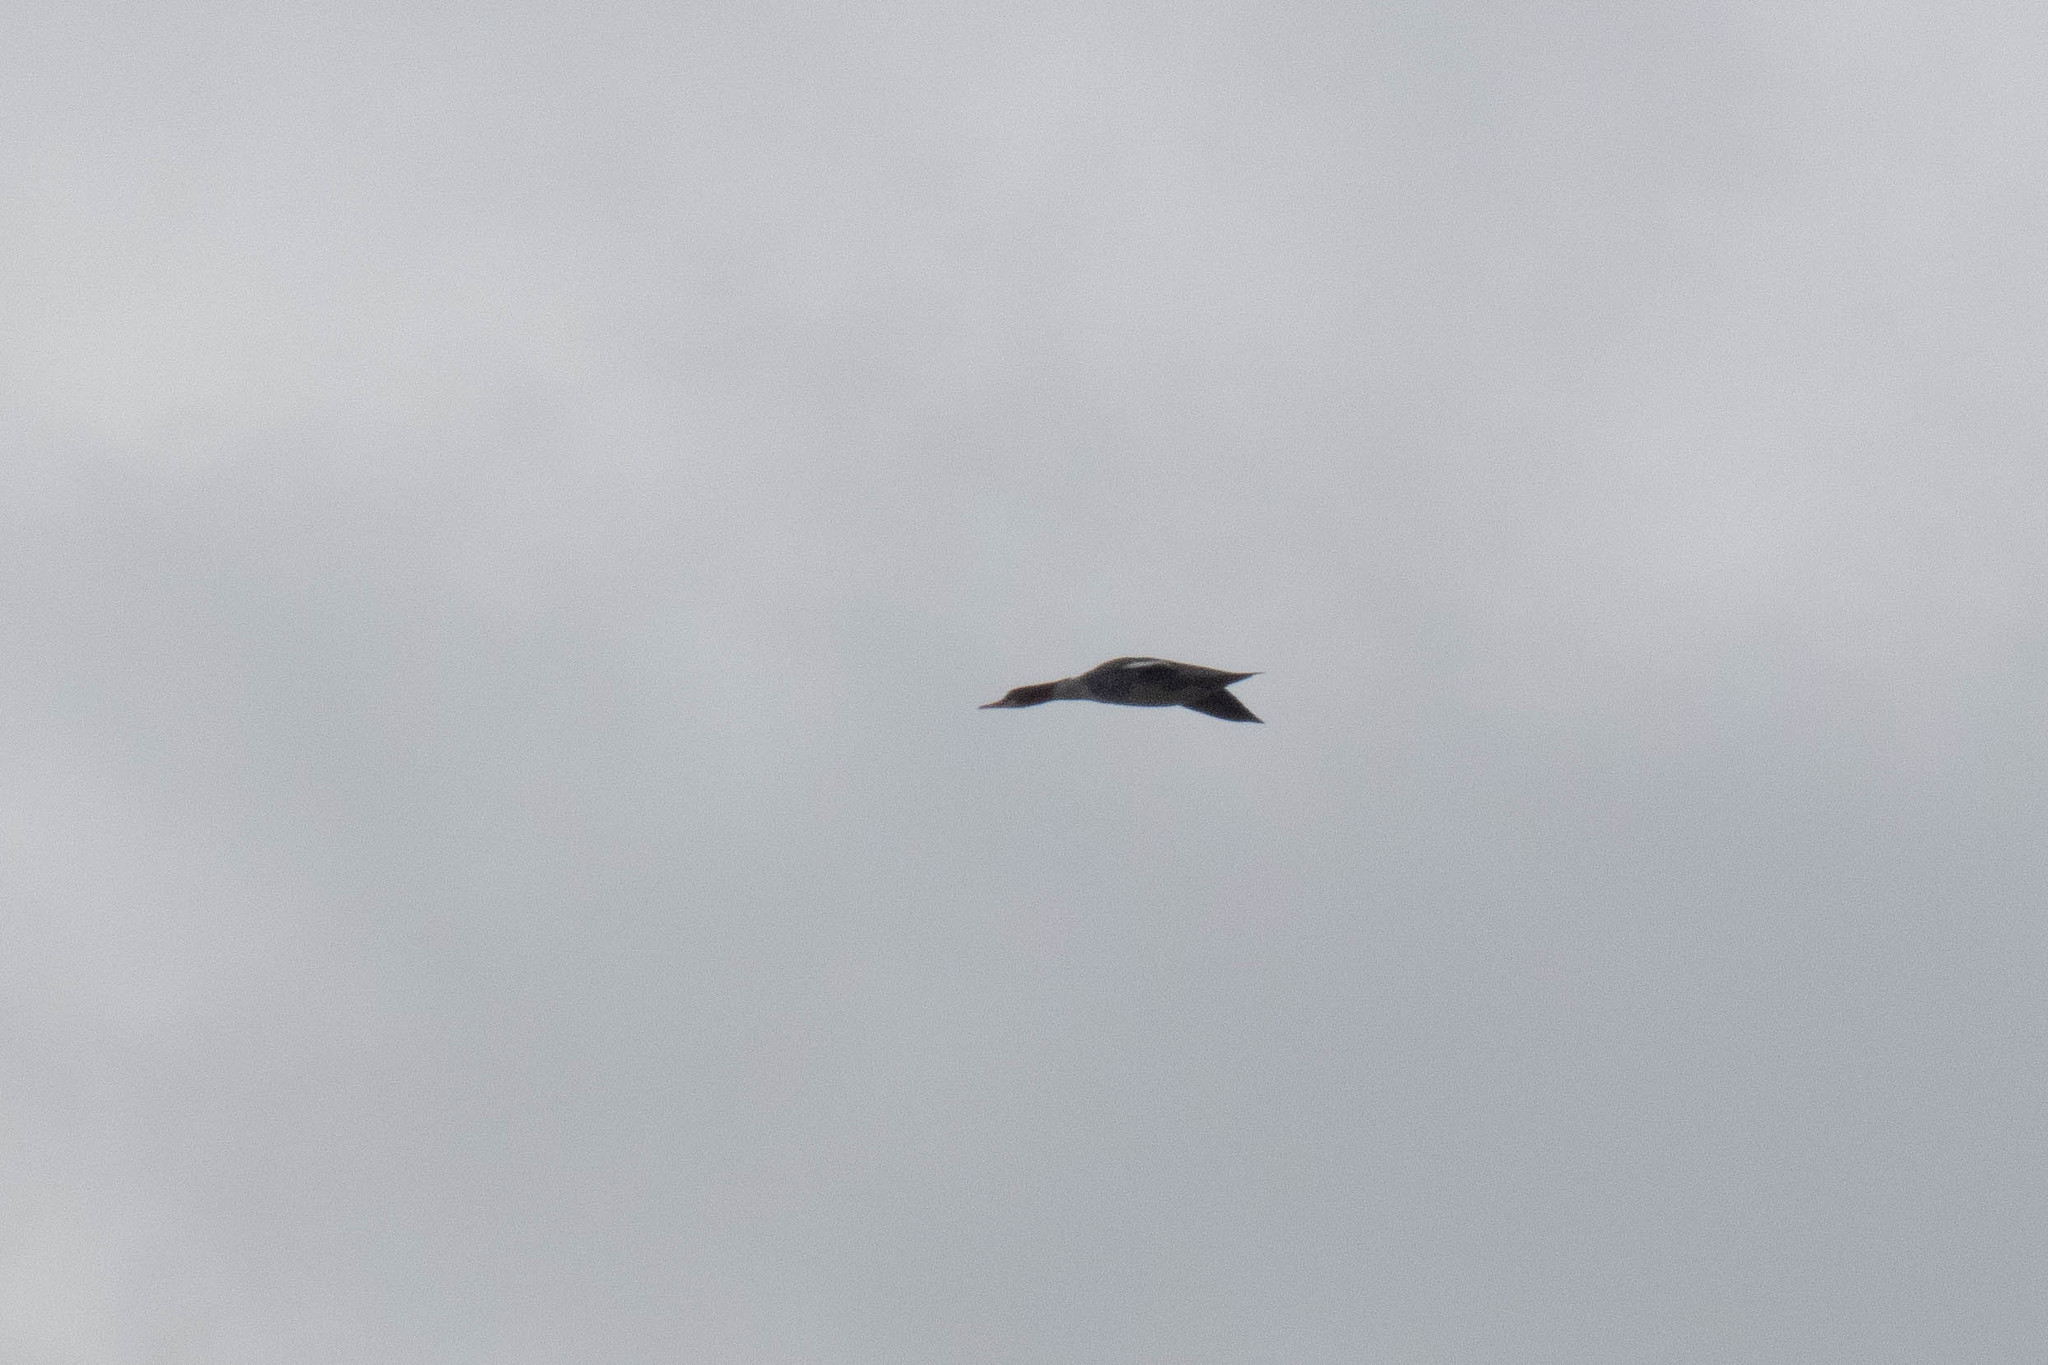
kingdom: Animalia
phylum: Chordata
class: Aves
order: Anseriformes
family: Anatidae
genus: Mergus
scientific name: Mergus merganser
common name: Common merganser
